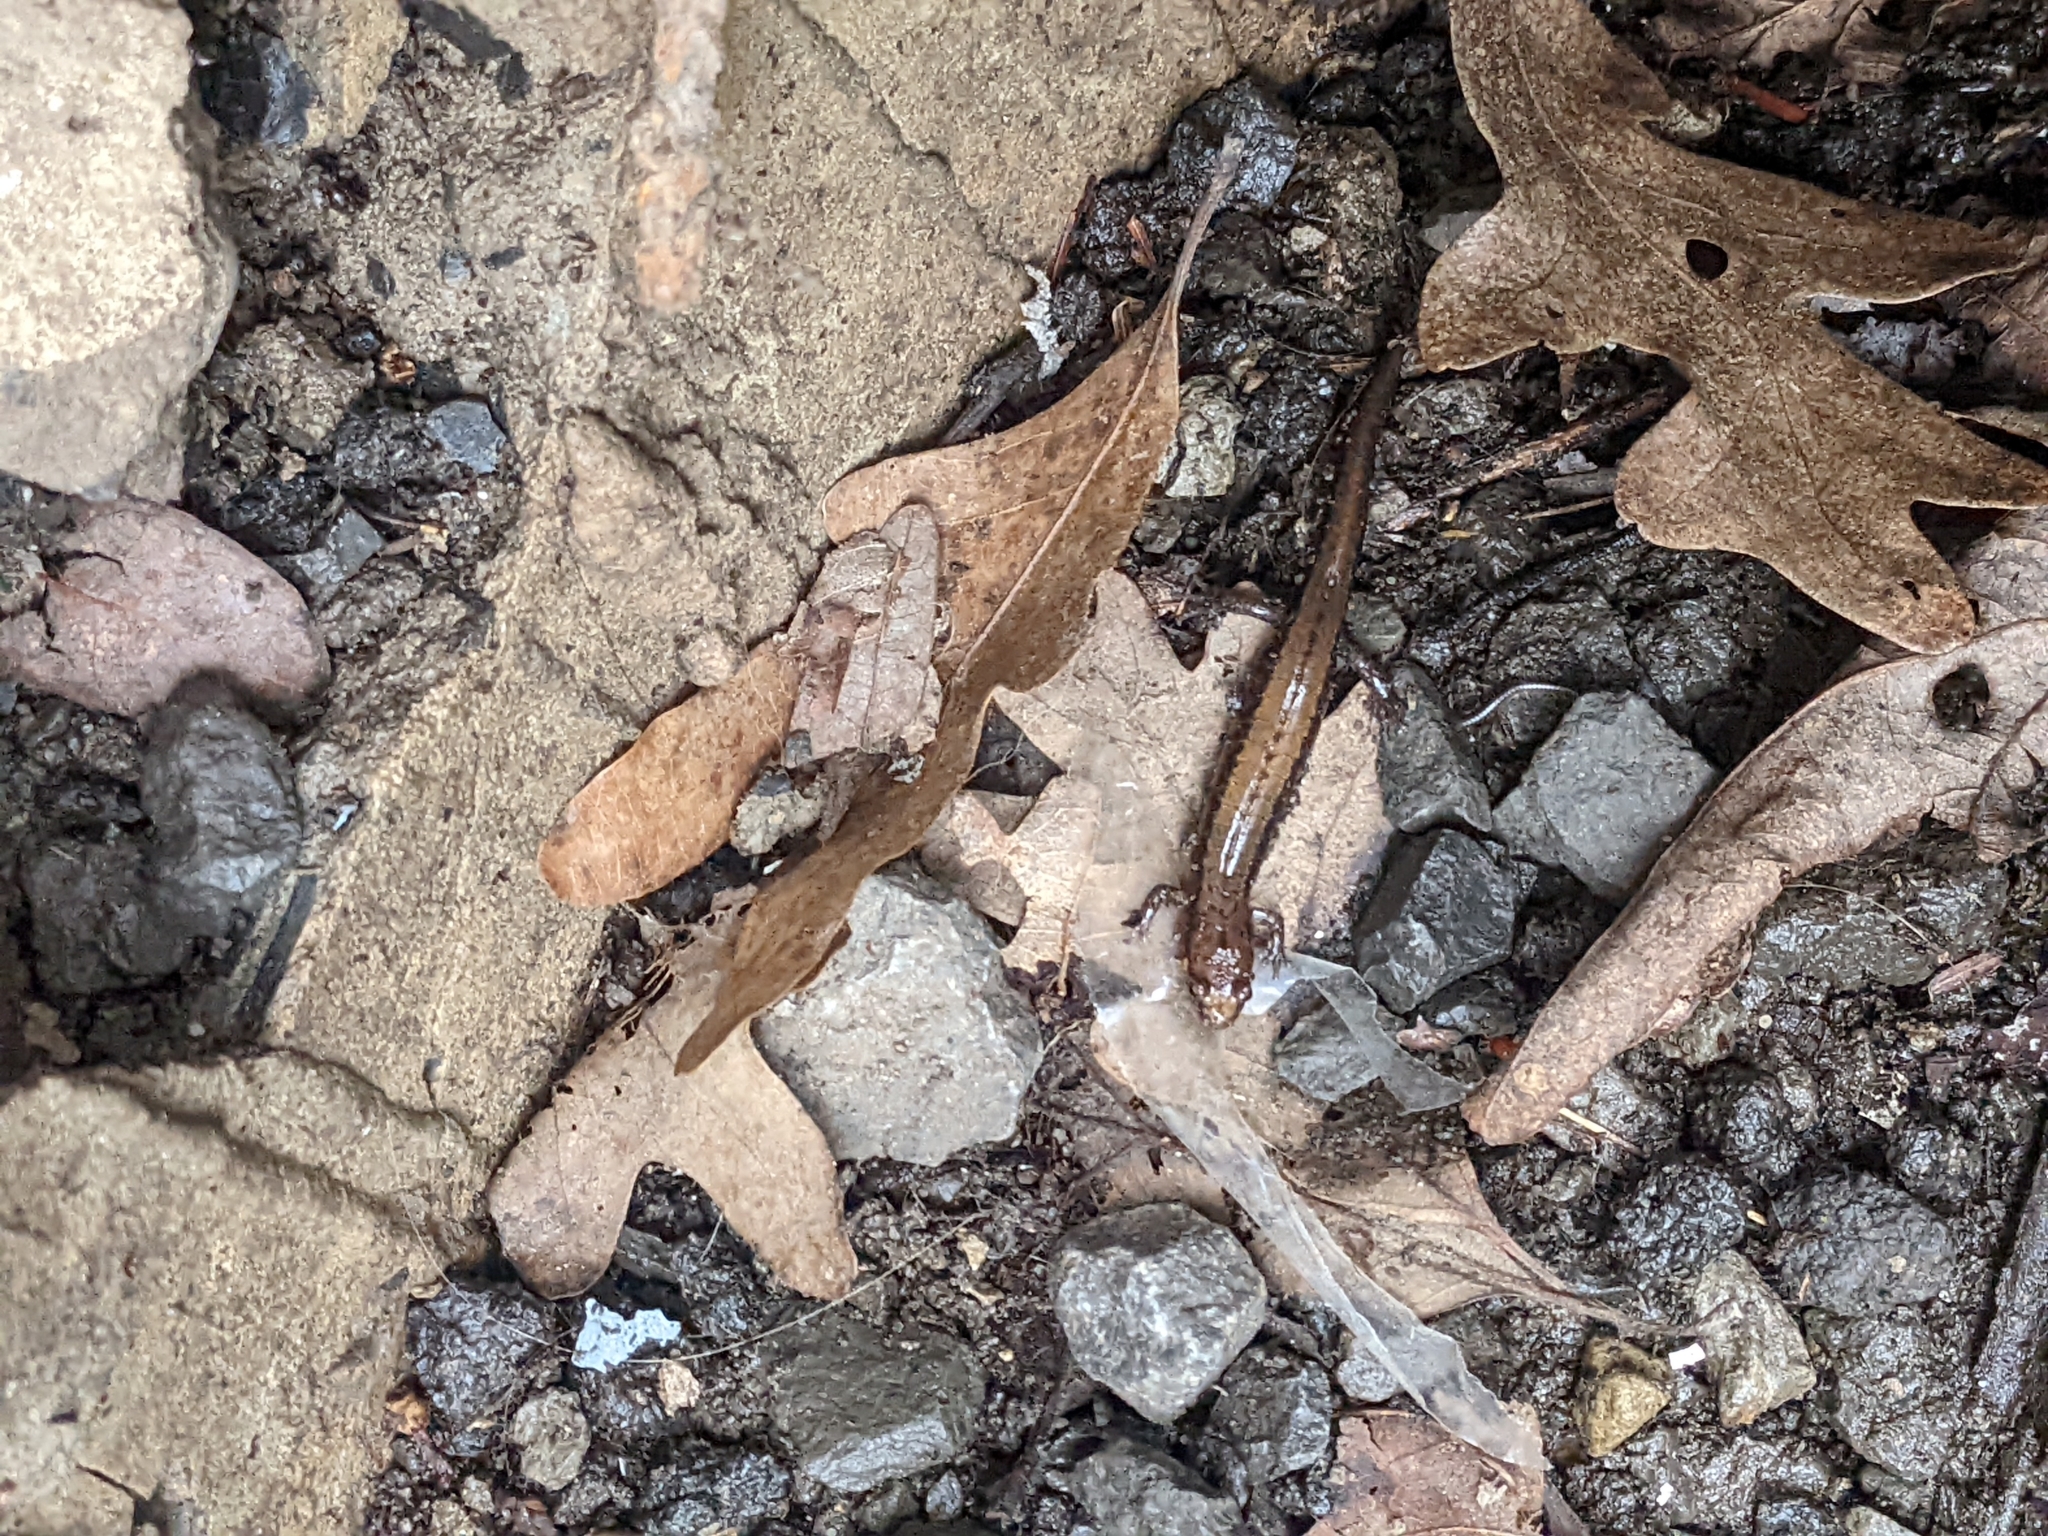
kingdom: Animalia
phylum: Chordata
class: Amphibia
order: Caudata
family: Plethodontidae
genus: Desmognathus
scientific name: Desmognathus ochrophaeus
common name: Allegheny mountain dusky salamander
